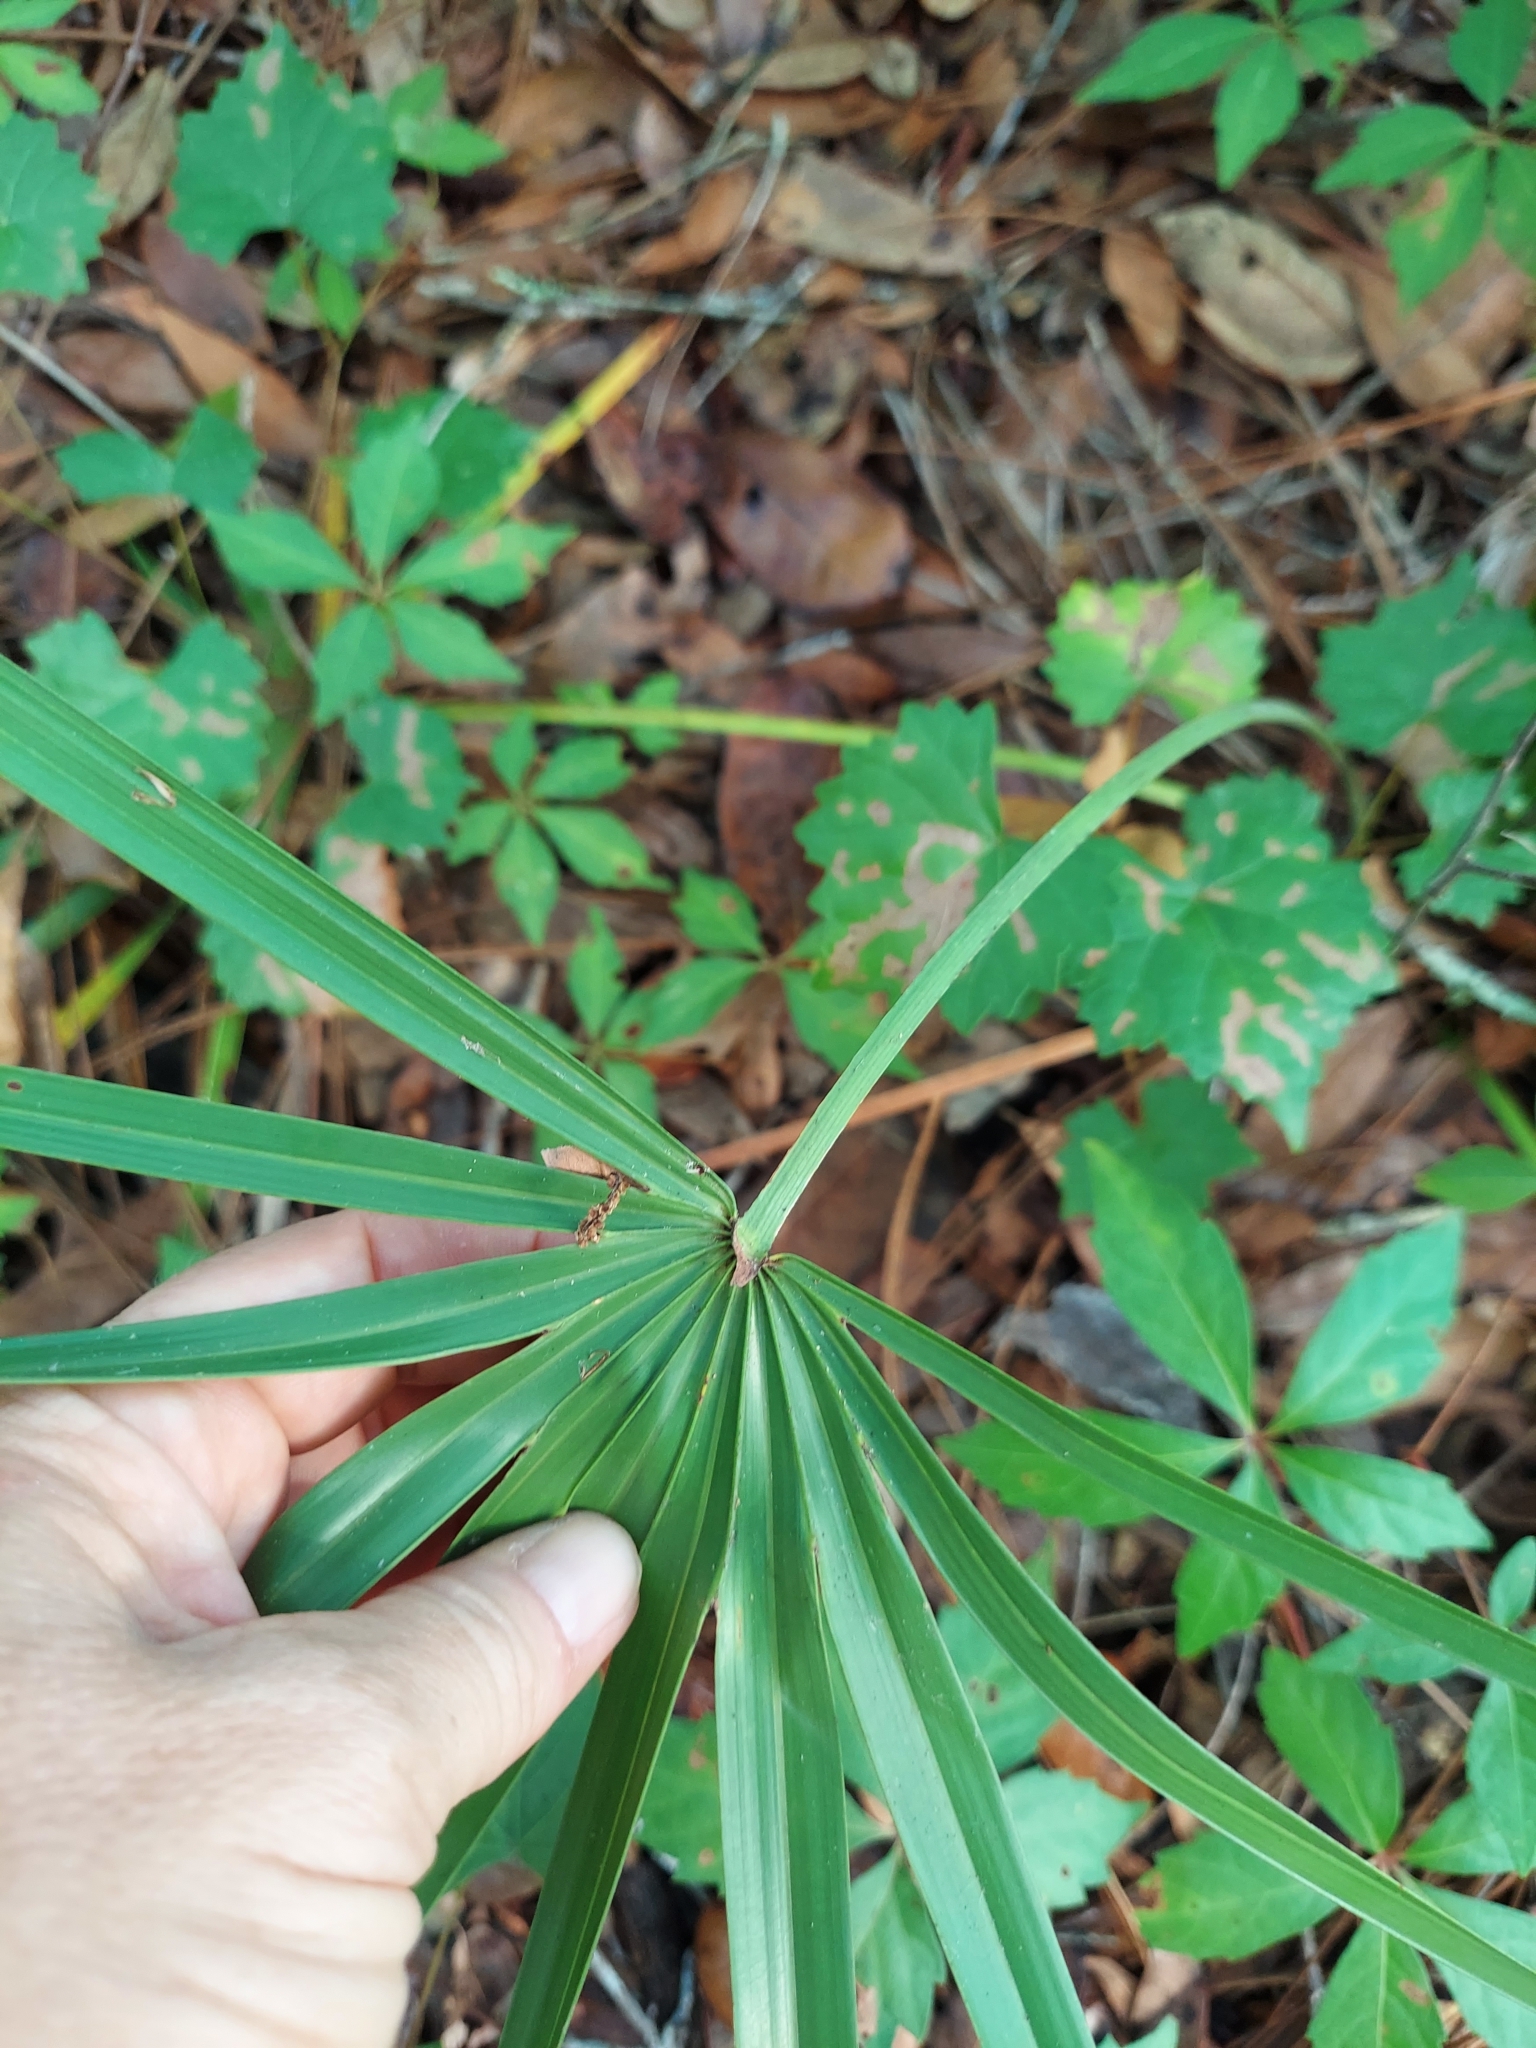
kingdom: Plantae
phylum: Tracheophyta
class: Liliopsida
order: Arecales
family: Arecaceae
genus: Serenoa
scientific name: Serenoa repens
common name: Saw-palmetto
